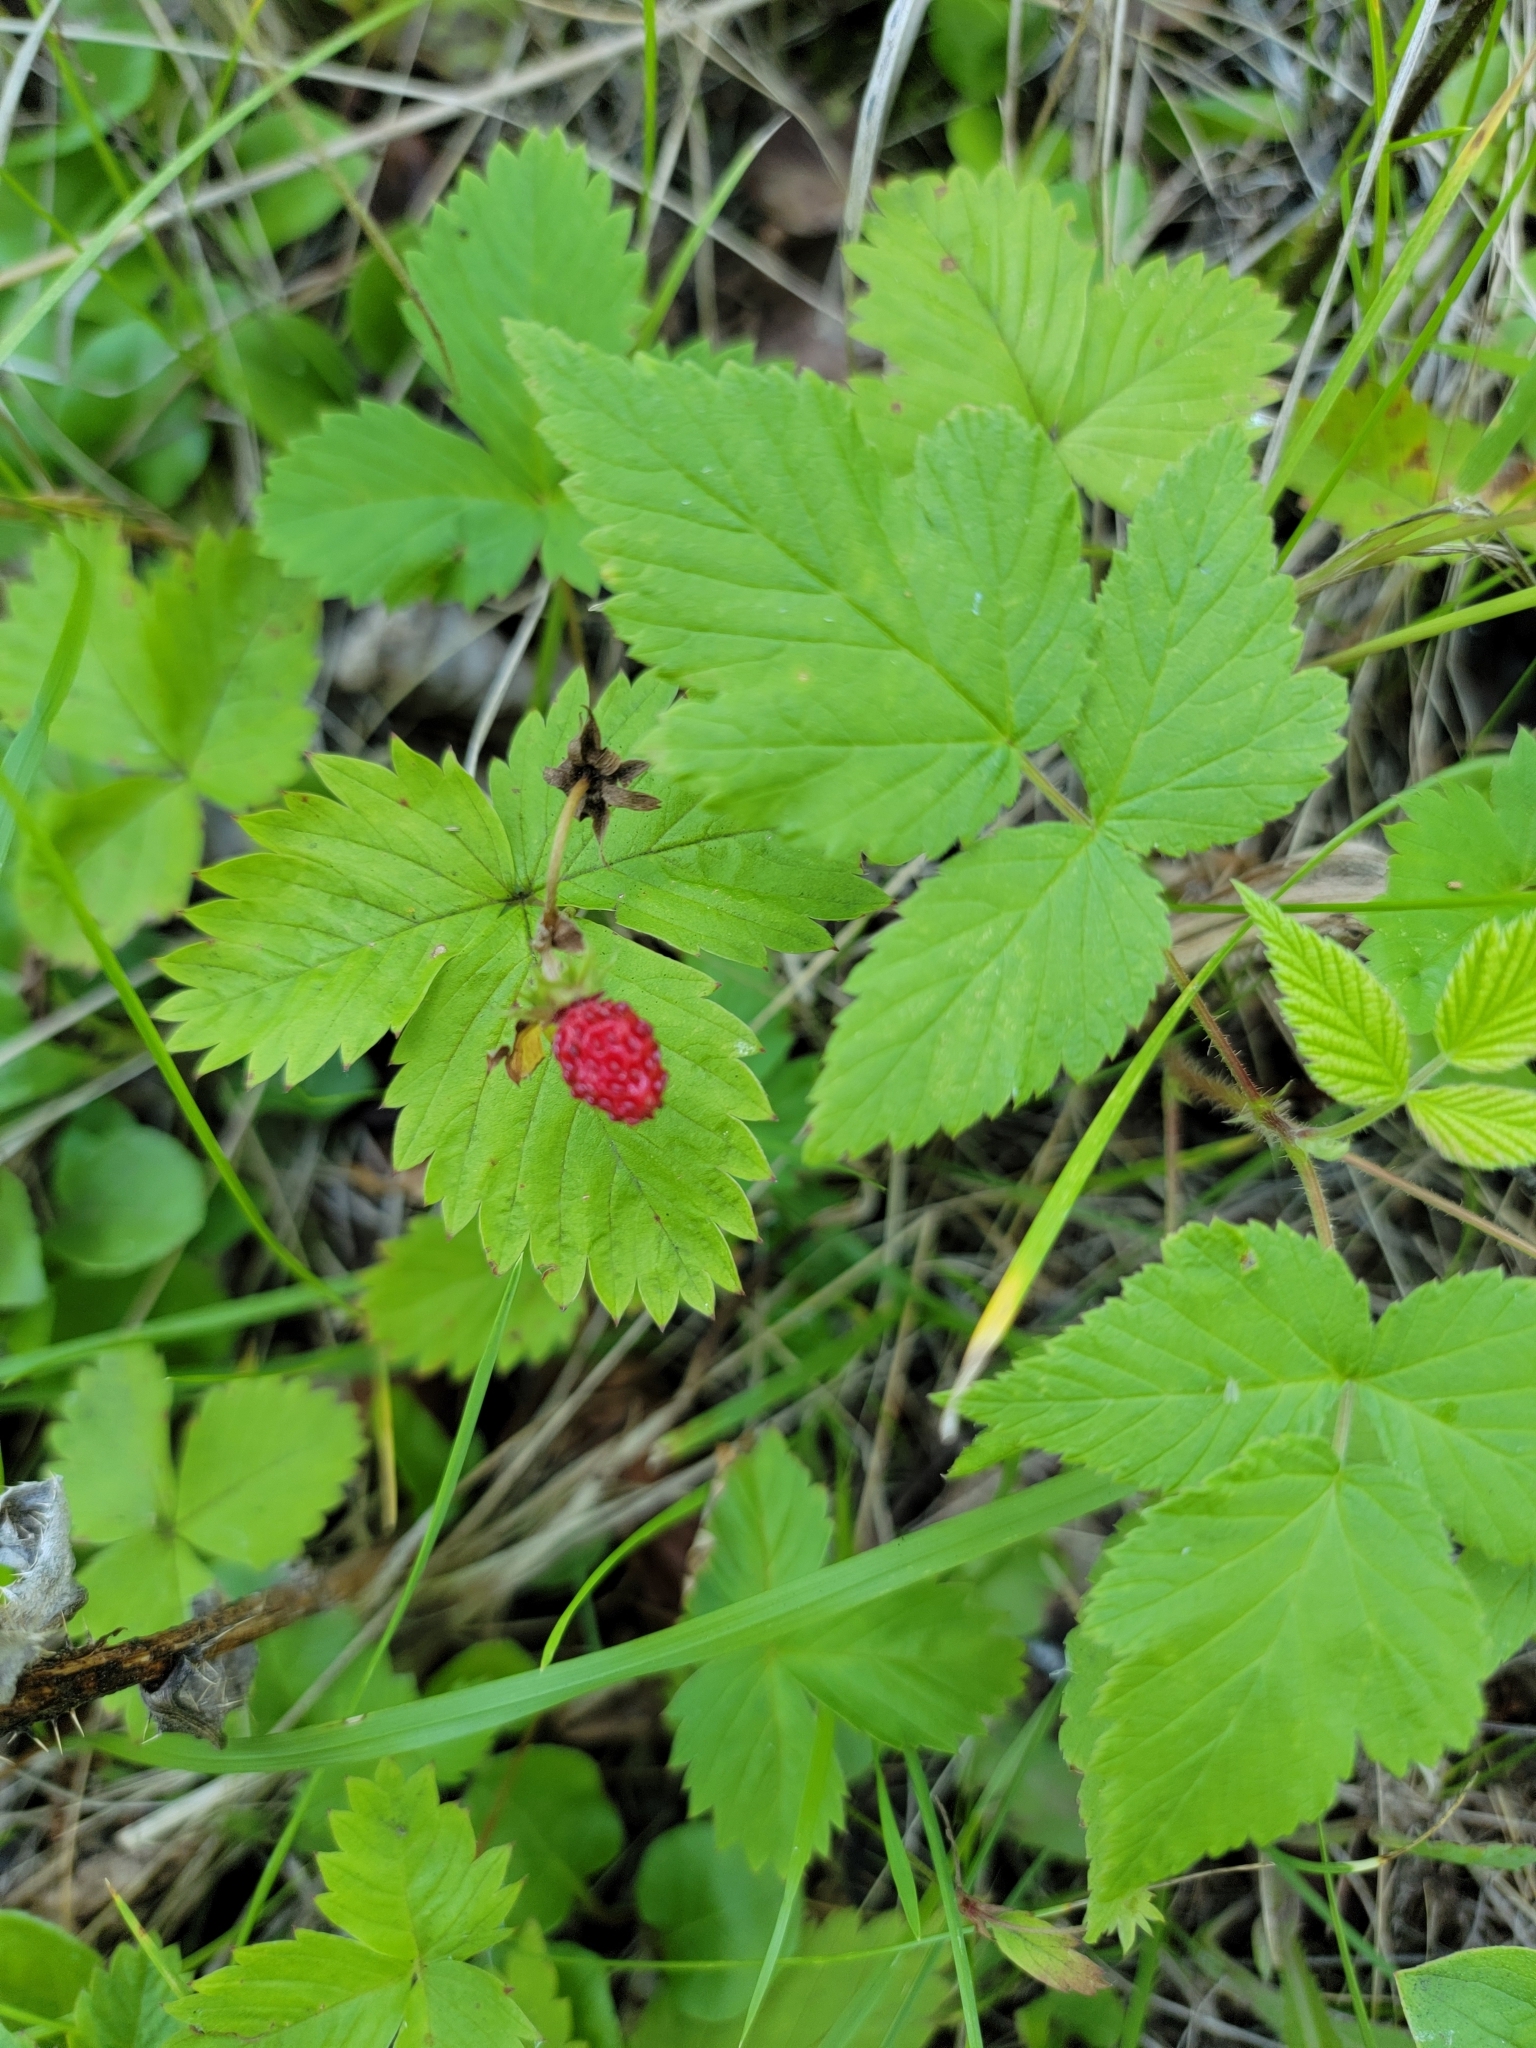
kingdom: Plantae
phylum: Tracheophyta
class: Magnoliopsida
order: Rosales
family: Rosaceae
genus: Rubus
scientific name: Rubus pubescens
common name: Dwarf raspberry
